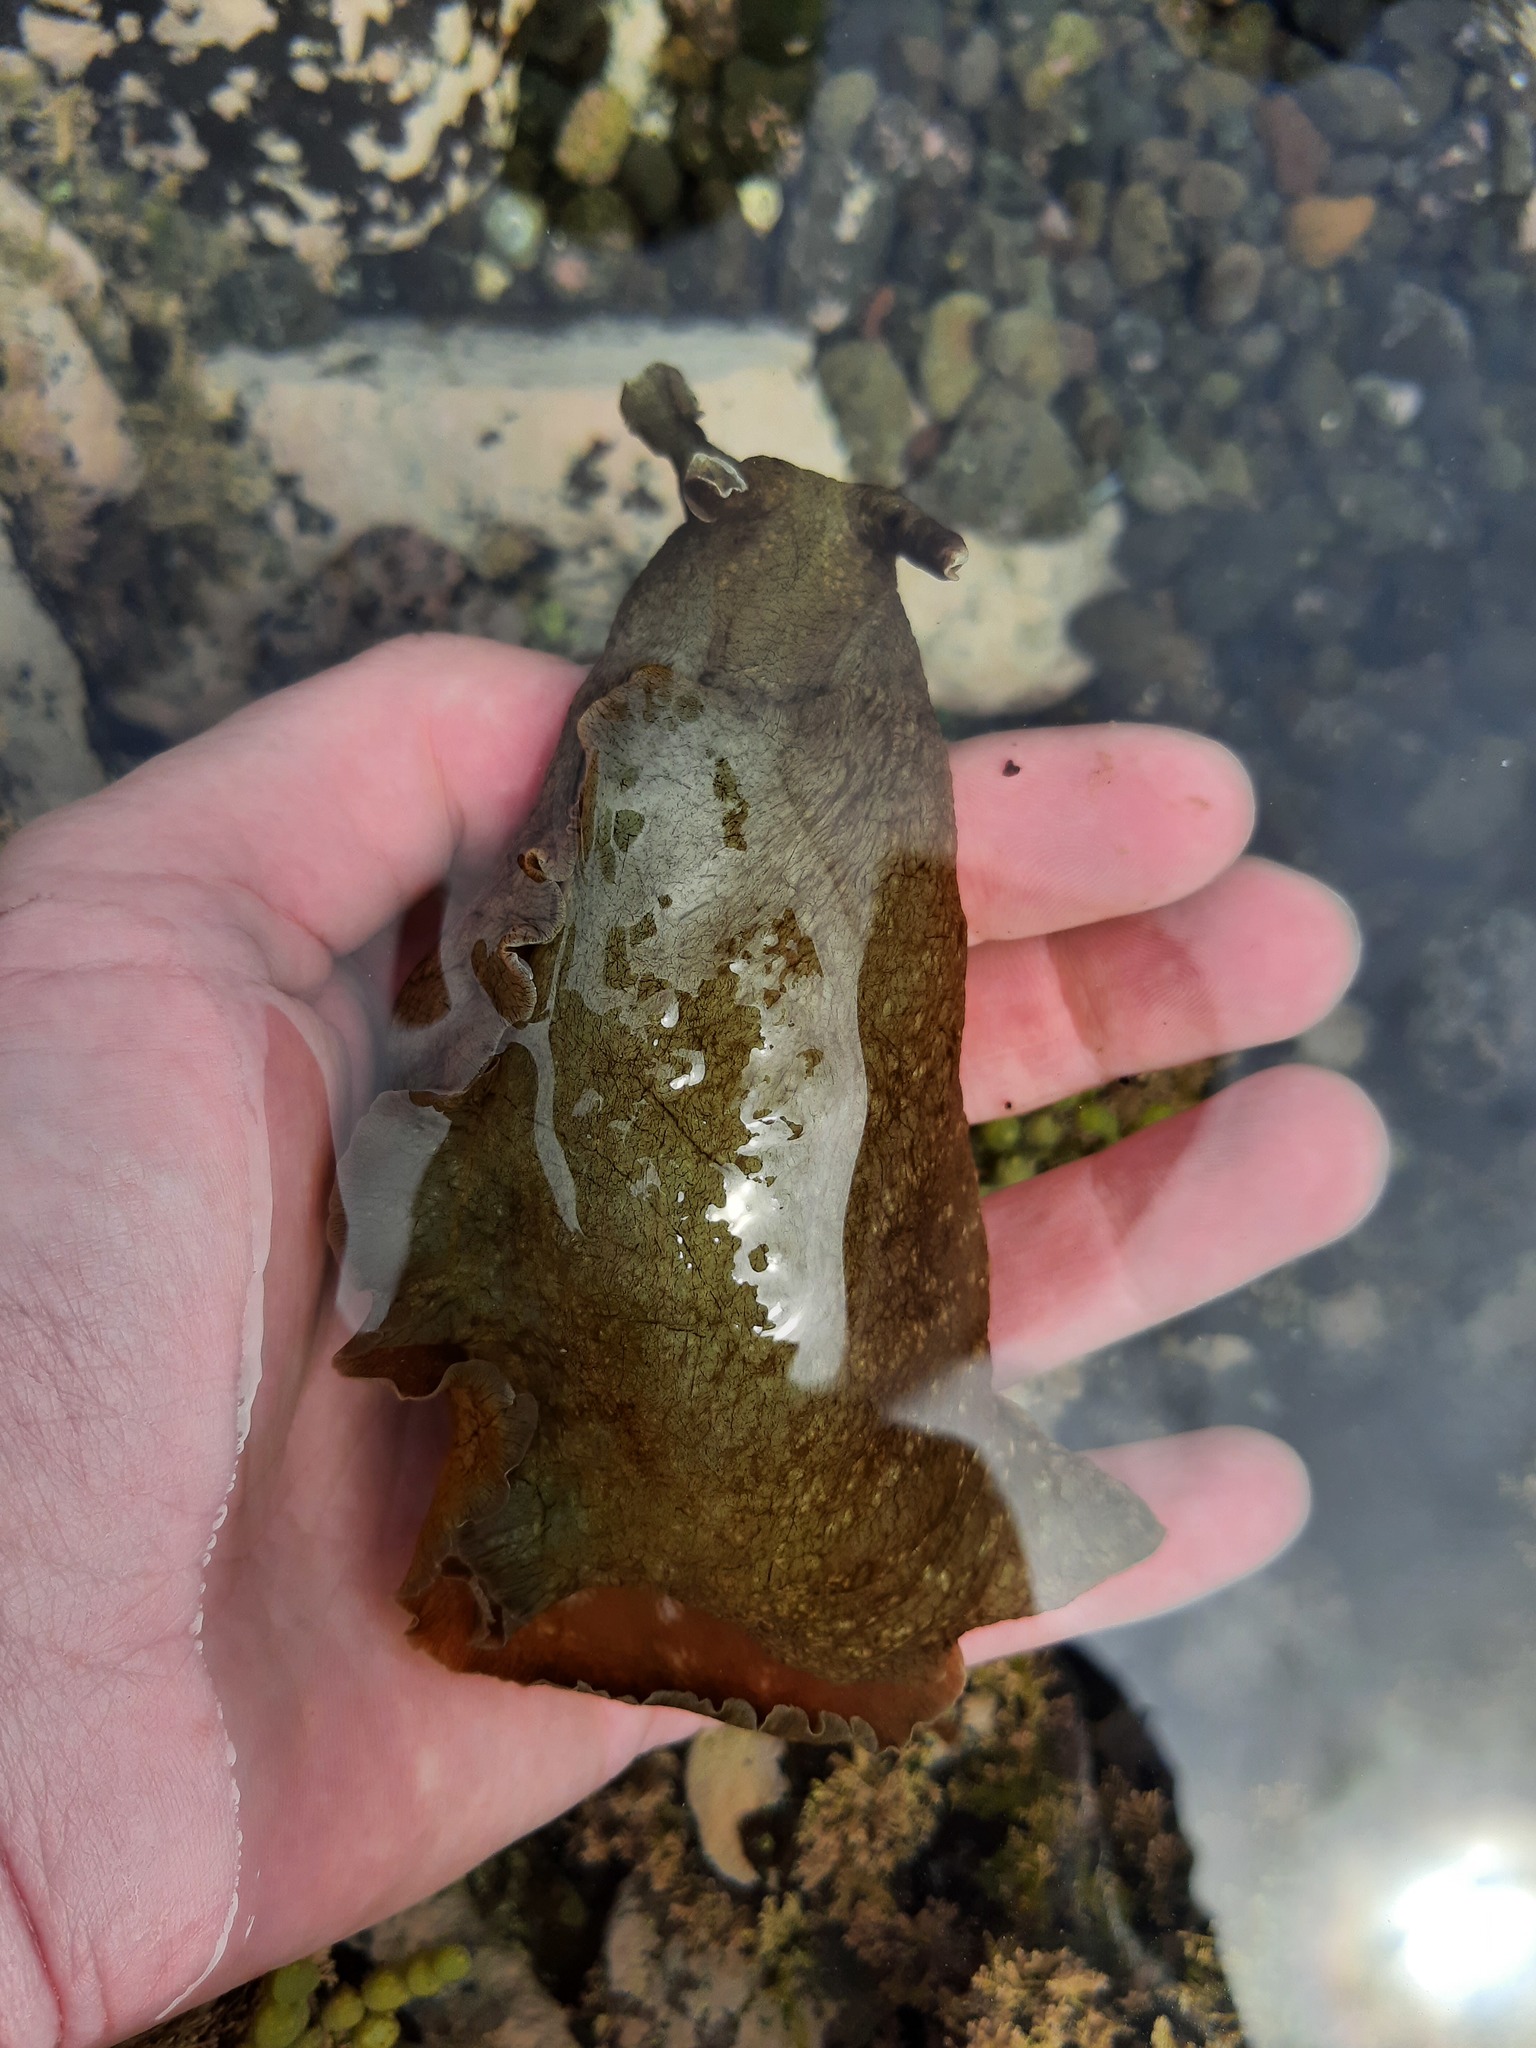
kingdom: Animalia
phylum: Mollusca
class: Gastropoda
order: Aplysiida
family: Aplysiidae
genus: Aplysia
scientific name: Aplysia juliana
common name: Walking sea hare
